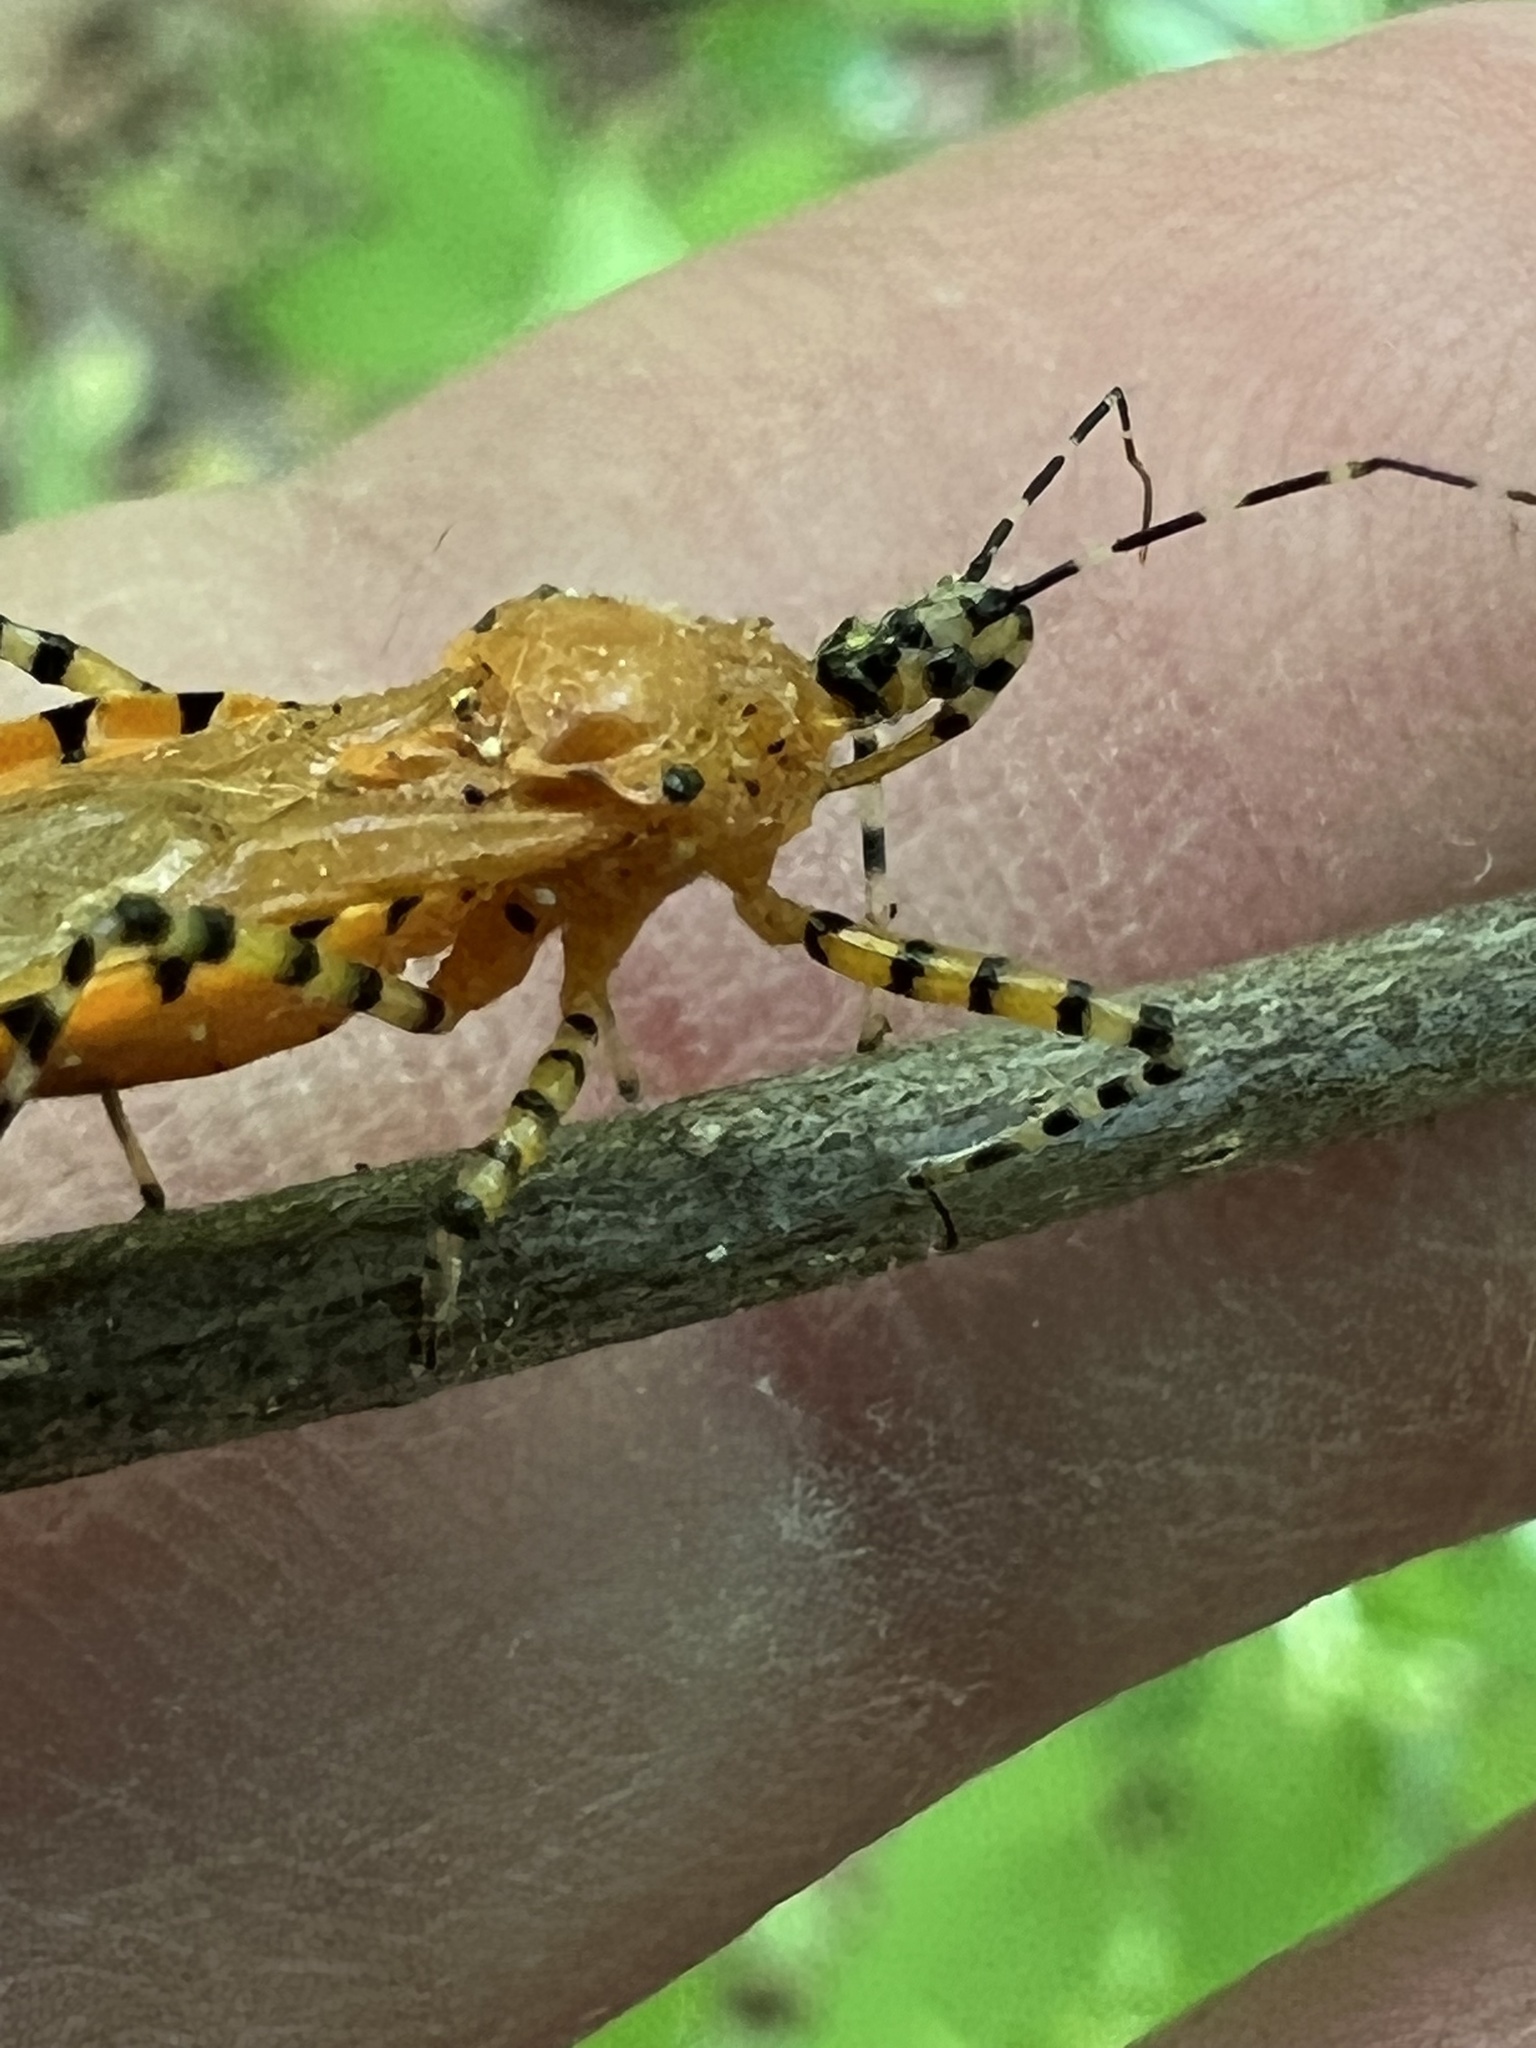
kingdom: Animalia
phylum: Arthropoda
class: Insecta
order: Hemiptera
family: Reduviidae
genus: Pselliopus
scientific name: Pselliopus barberi
